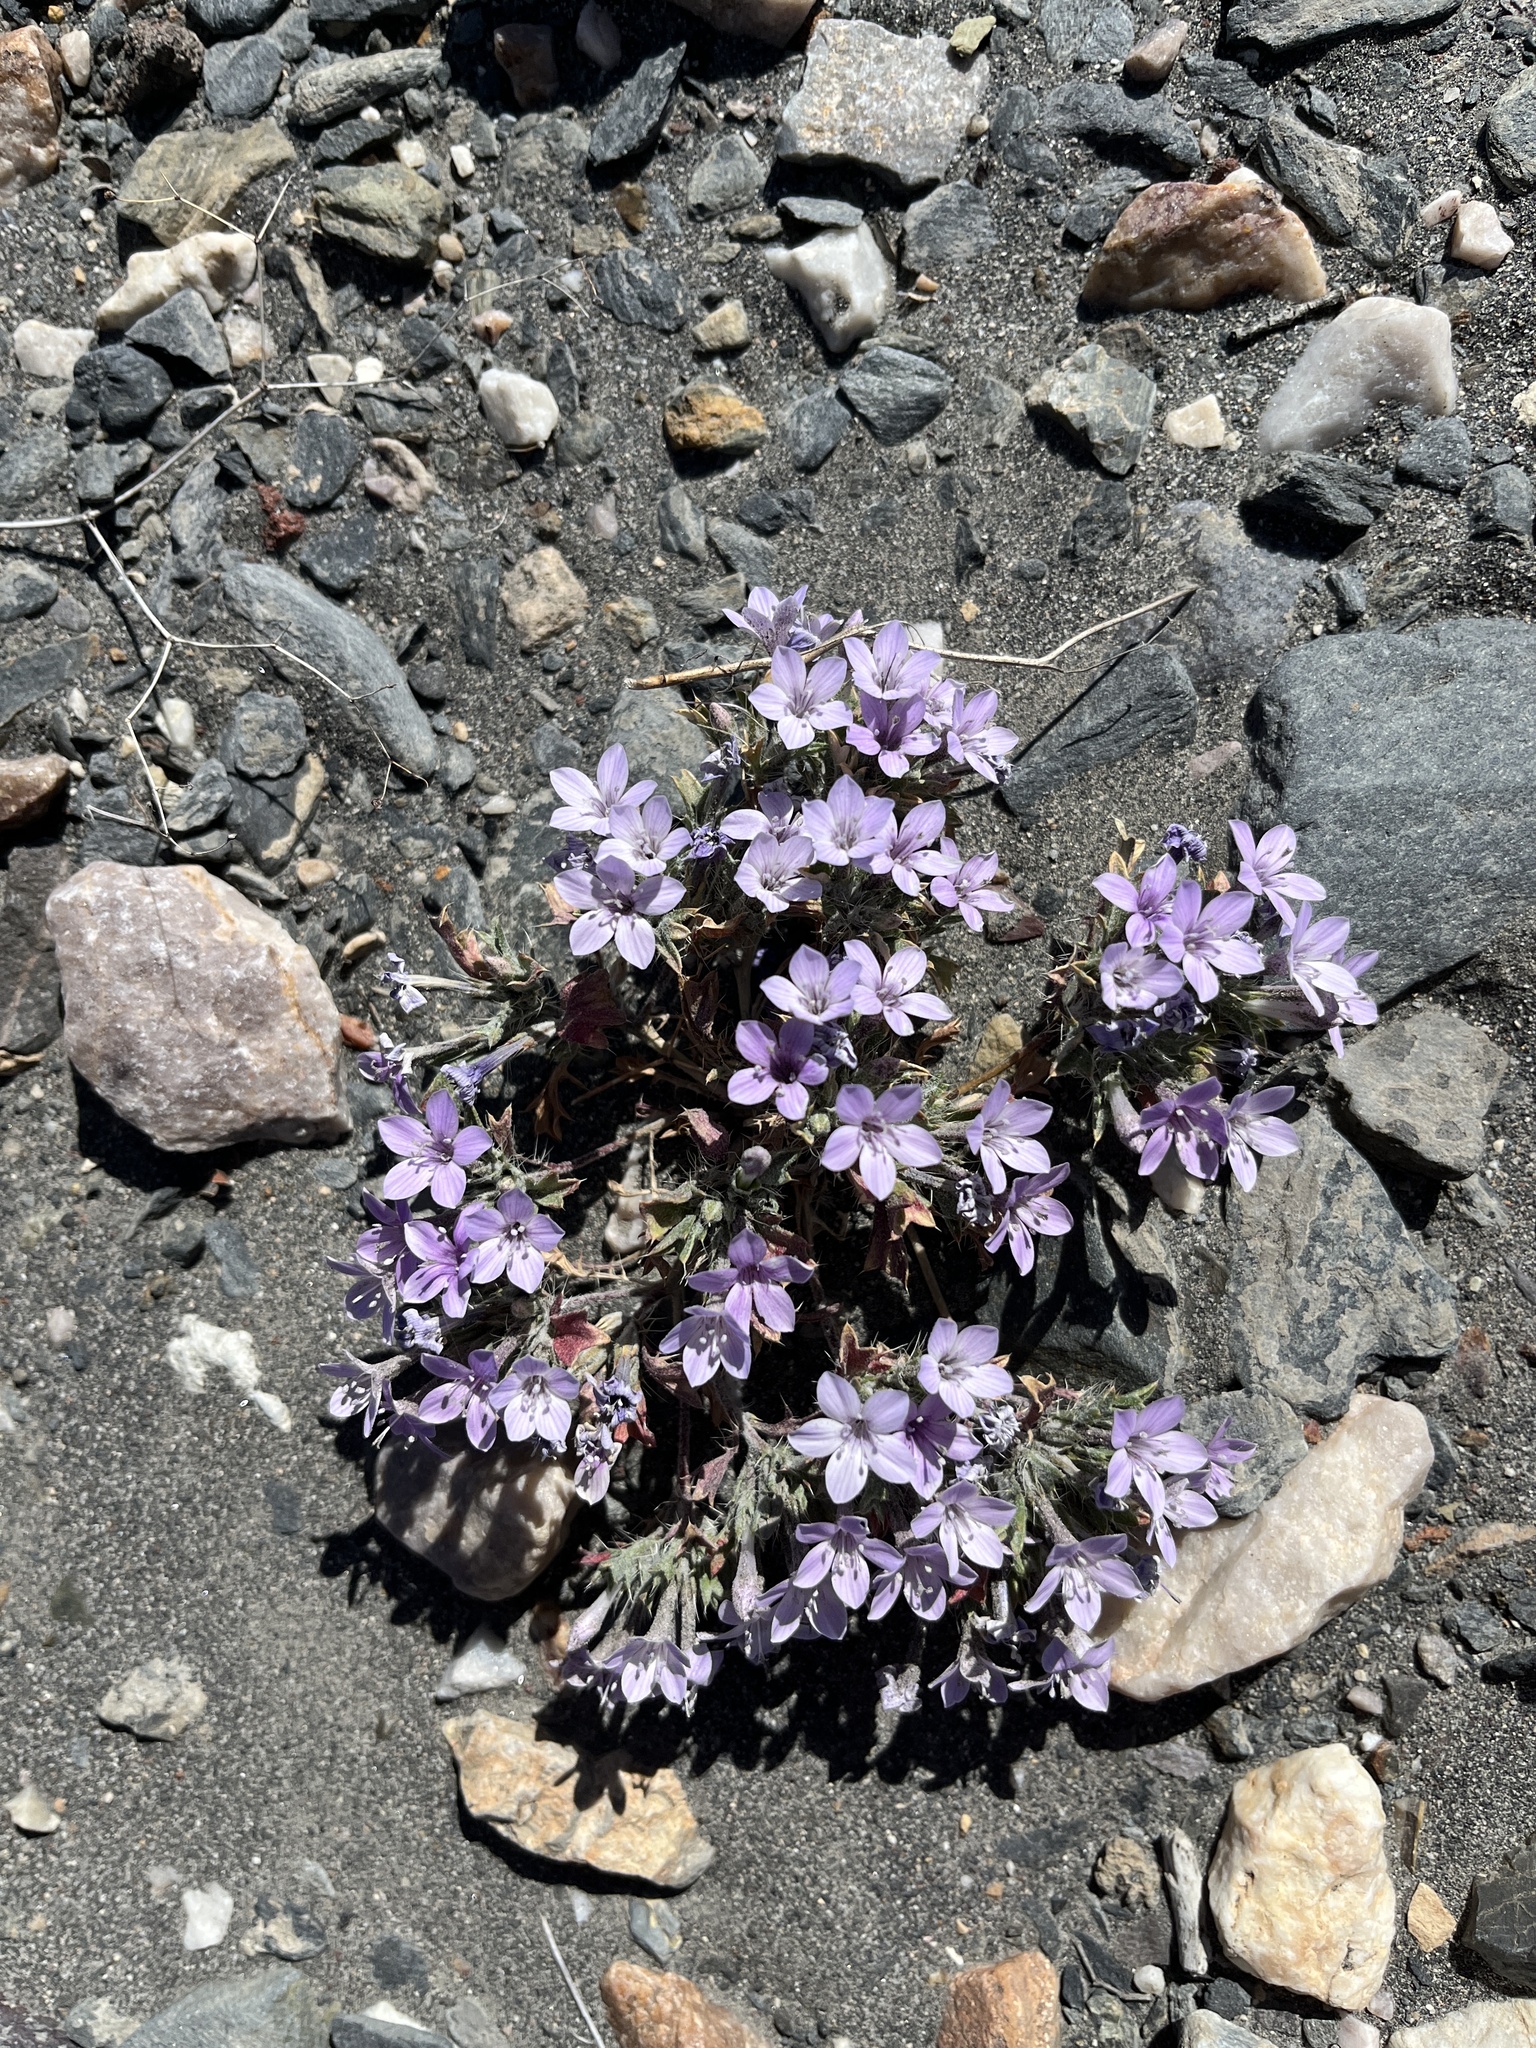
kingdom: Plantae
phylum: Tracheophyta
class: Magnoliopsida
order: Ericales
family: Polemoniaceae
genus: Langloisia
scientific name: Langloisia setosissima
